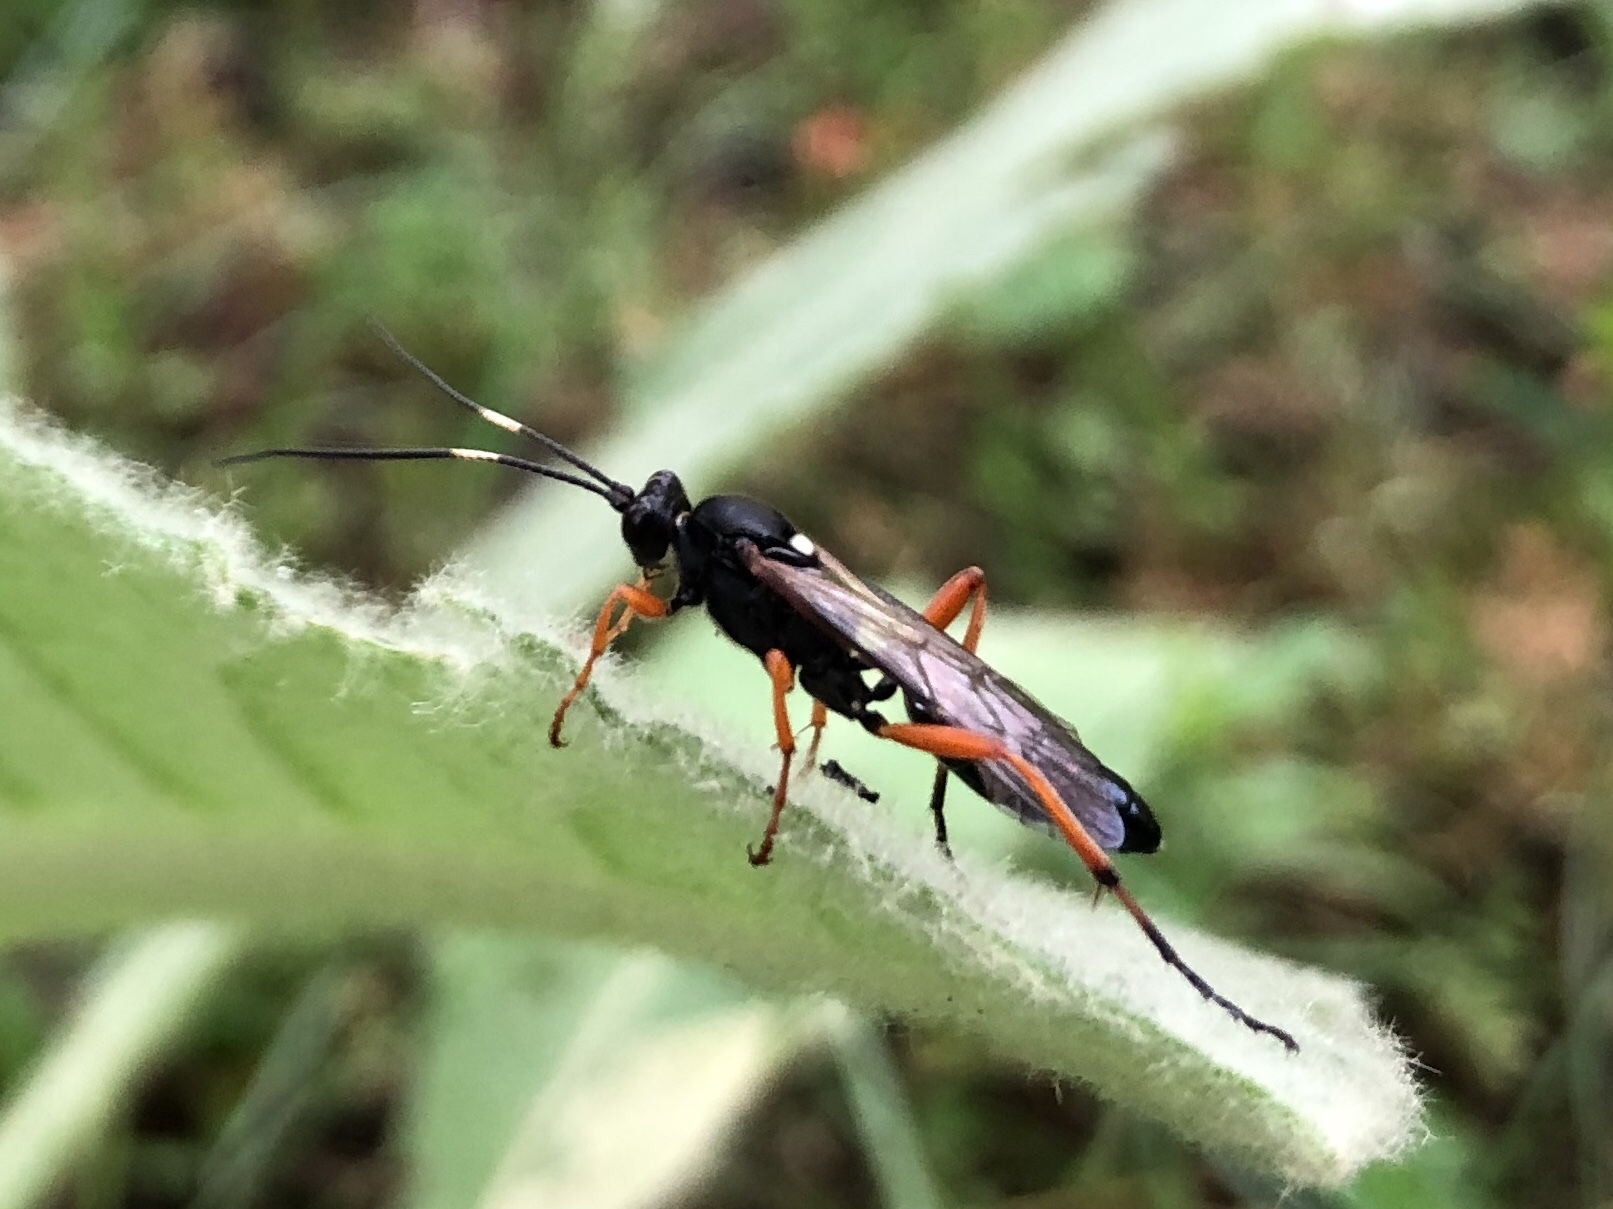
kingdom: Animalia
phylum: Arthropoda
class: Insecta
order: Hymenoptera
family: Ichneumonidae
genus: Diphyus
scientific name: Diphyus quadripunctorius
